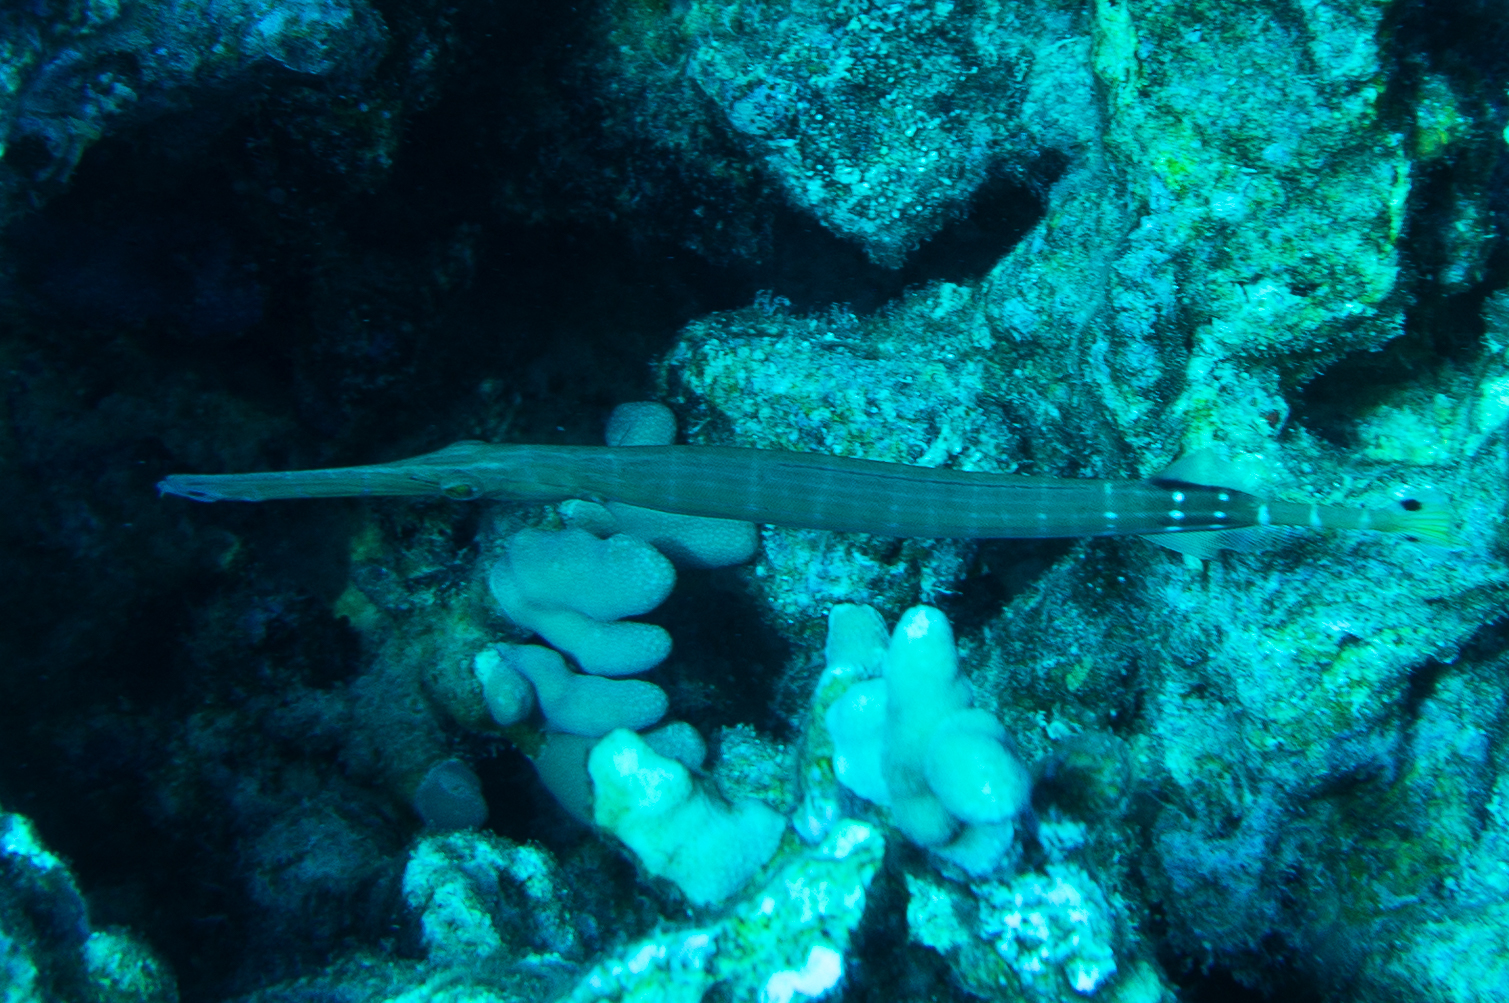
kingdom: Animalia
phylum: Chordata
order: Syngnathiformes
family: Aulostomidae
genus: Aulostomus
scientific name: Aulostomus chinensis
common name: Chinese trumpetfish
